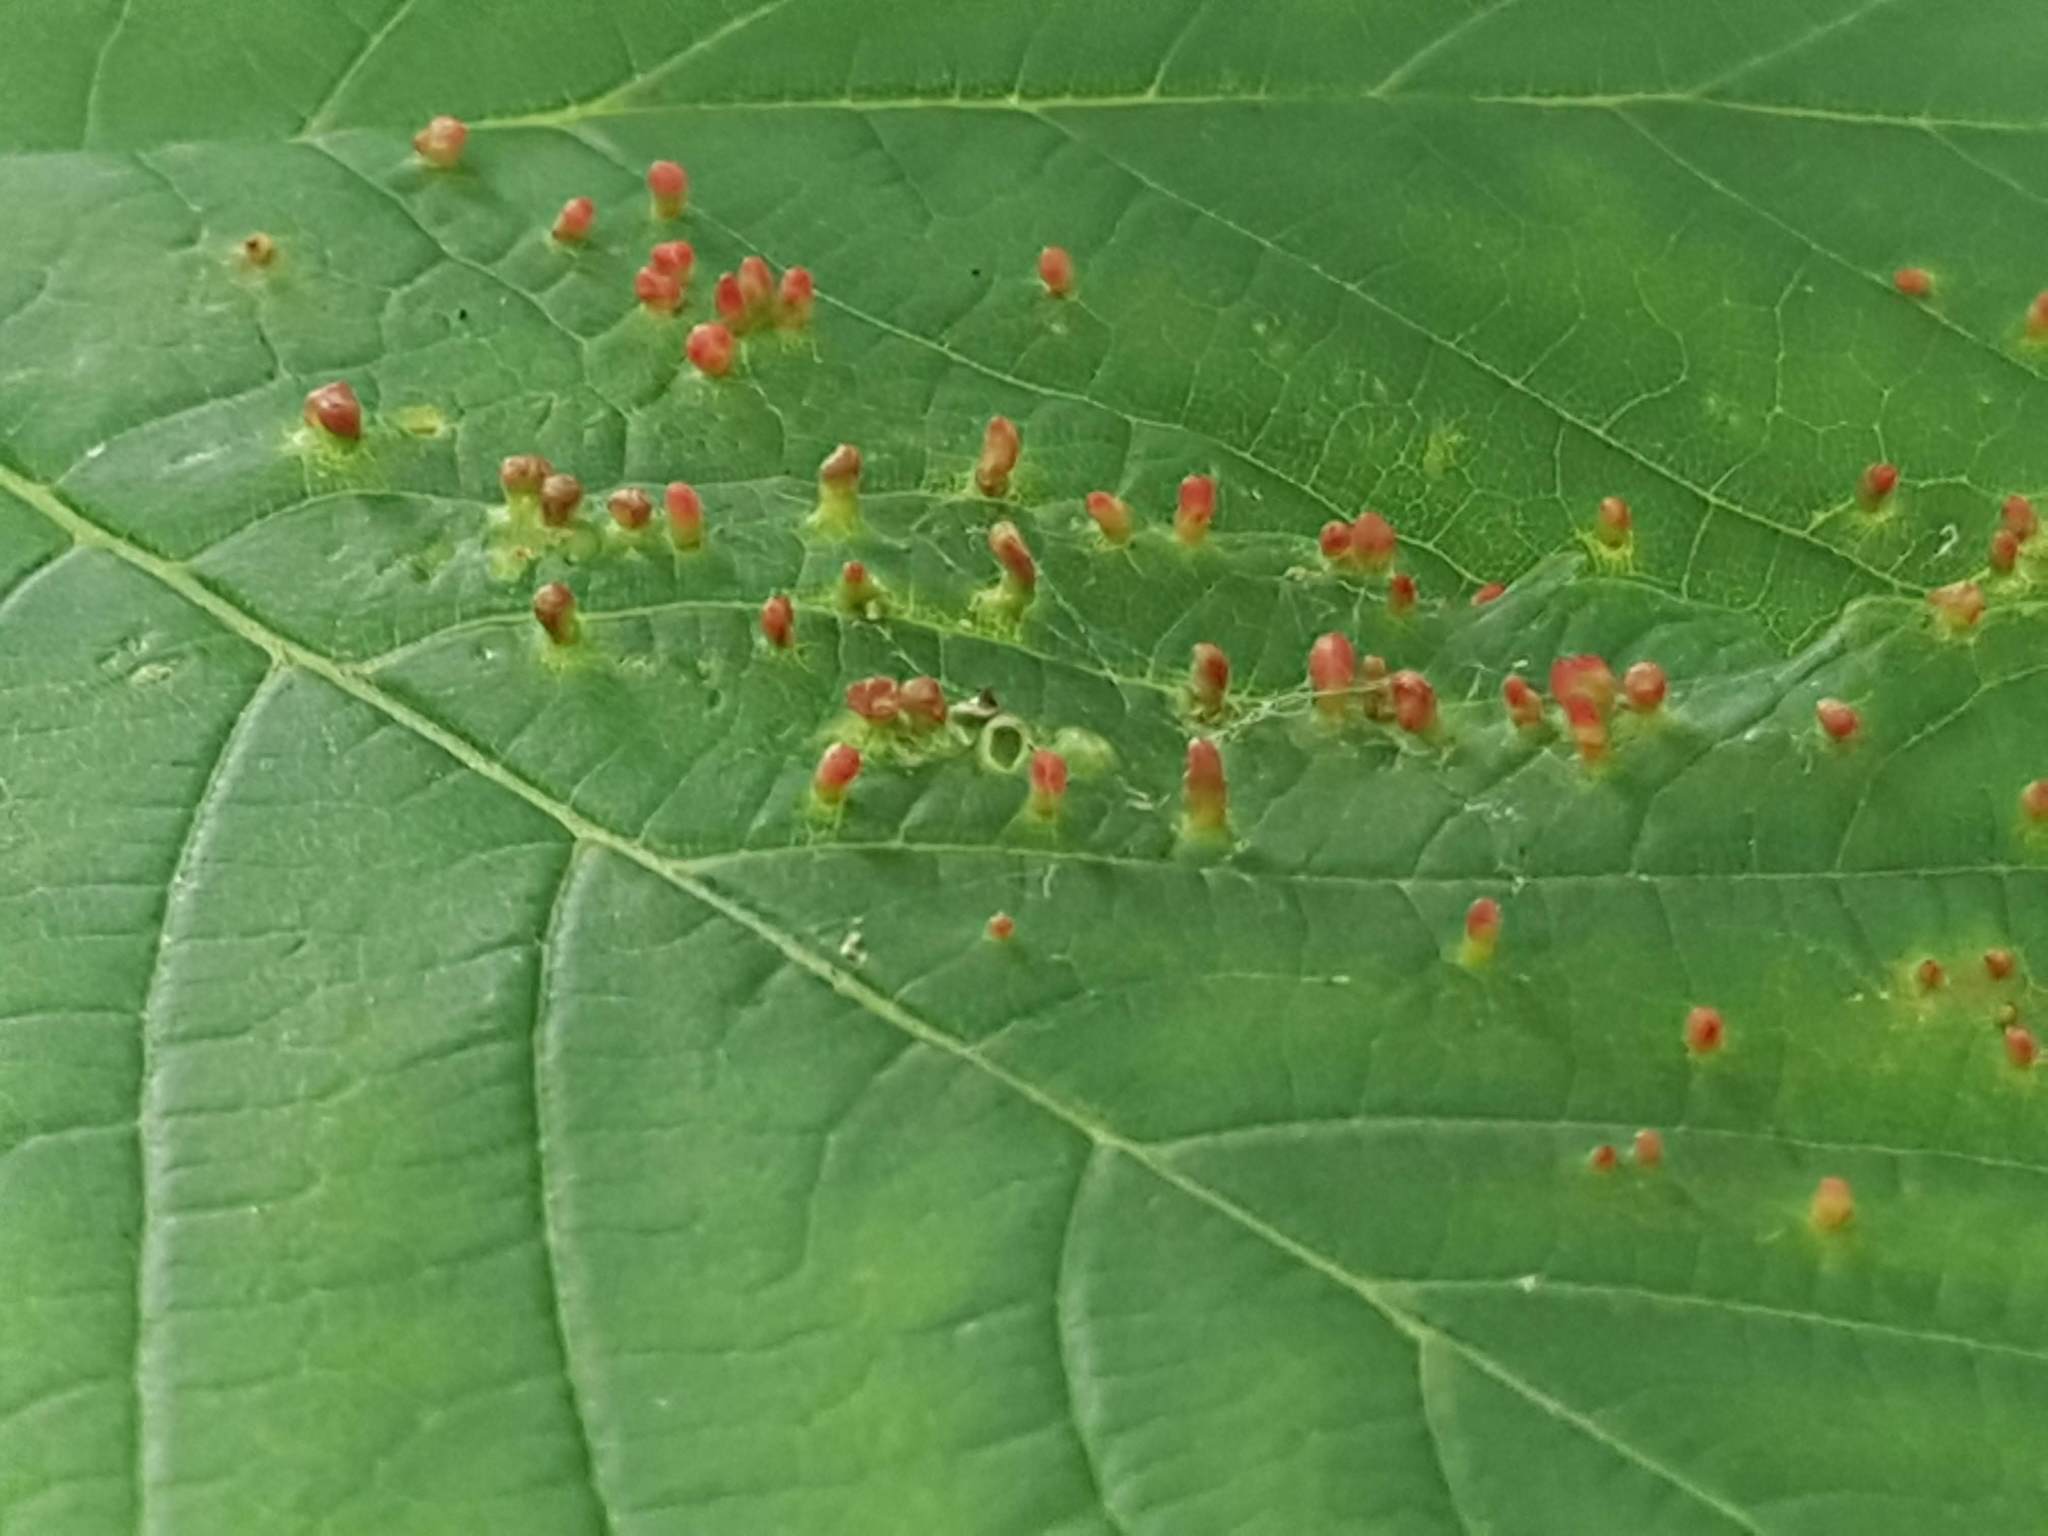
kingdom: Animalia
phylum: Arthropoda
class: Arachnida
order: Trombidiformes
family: Eriophyidae
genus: Aceria
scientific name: Aceria cephaloneus
